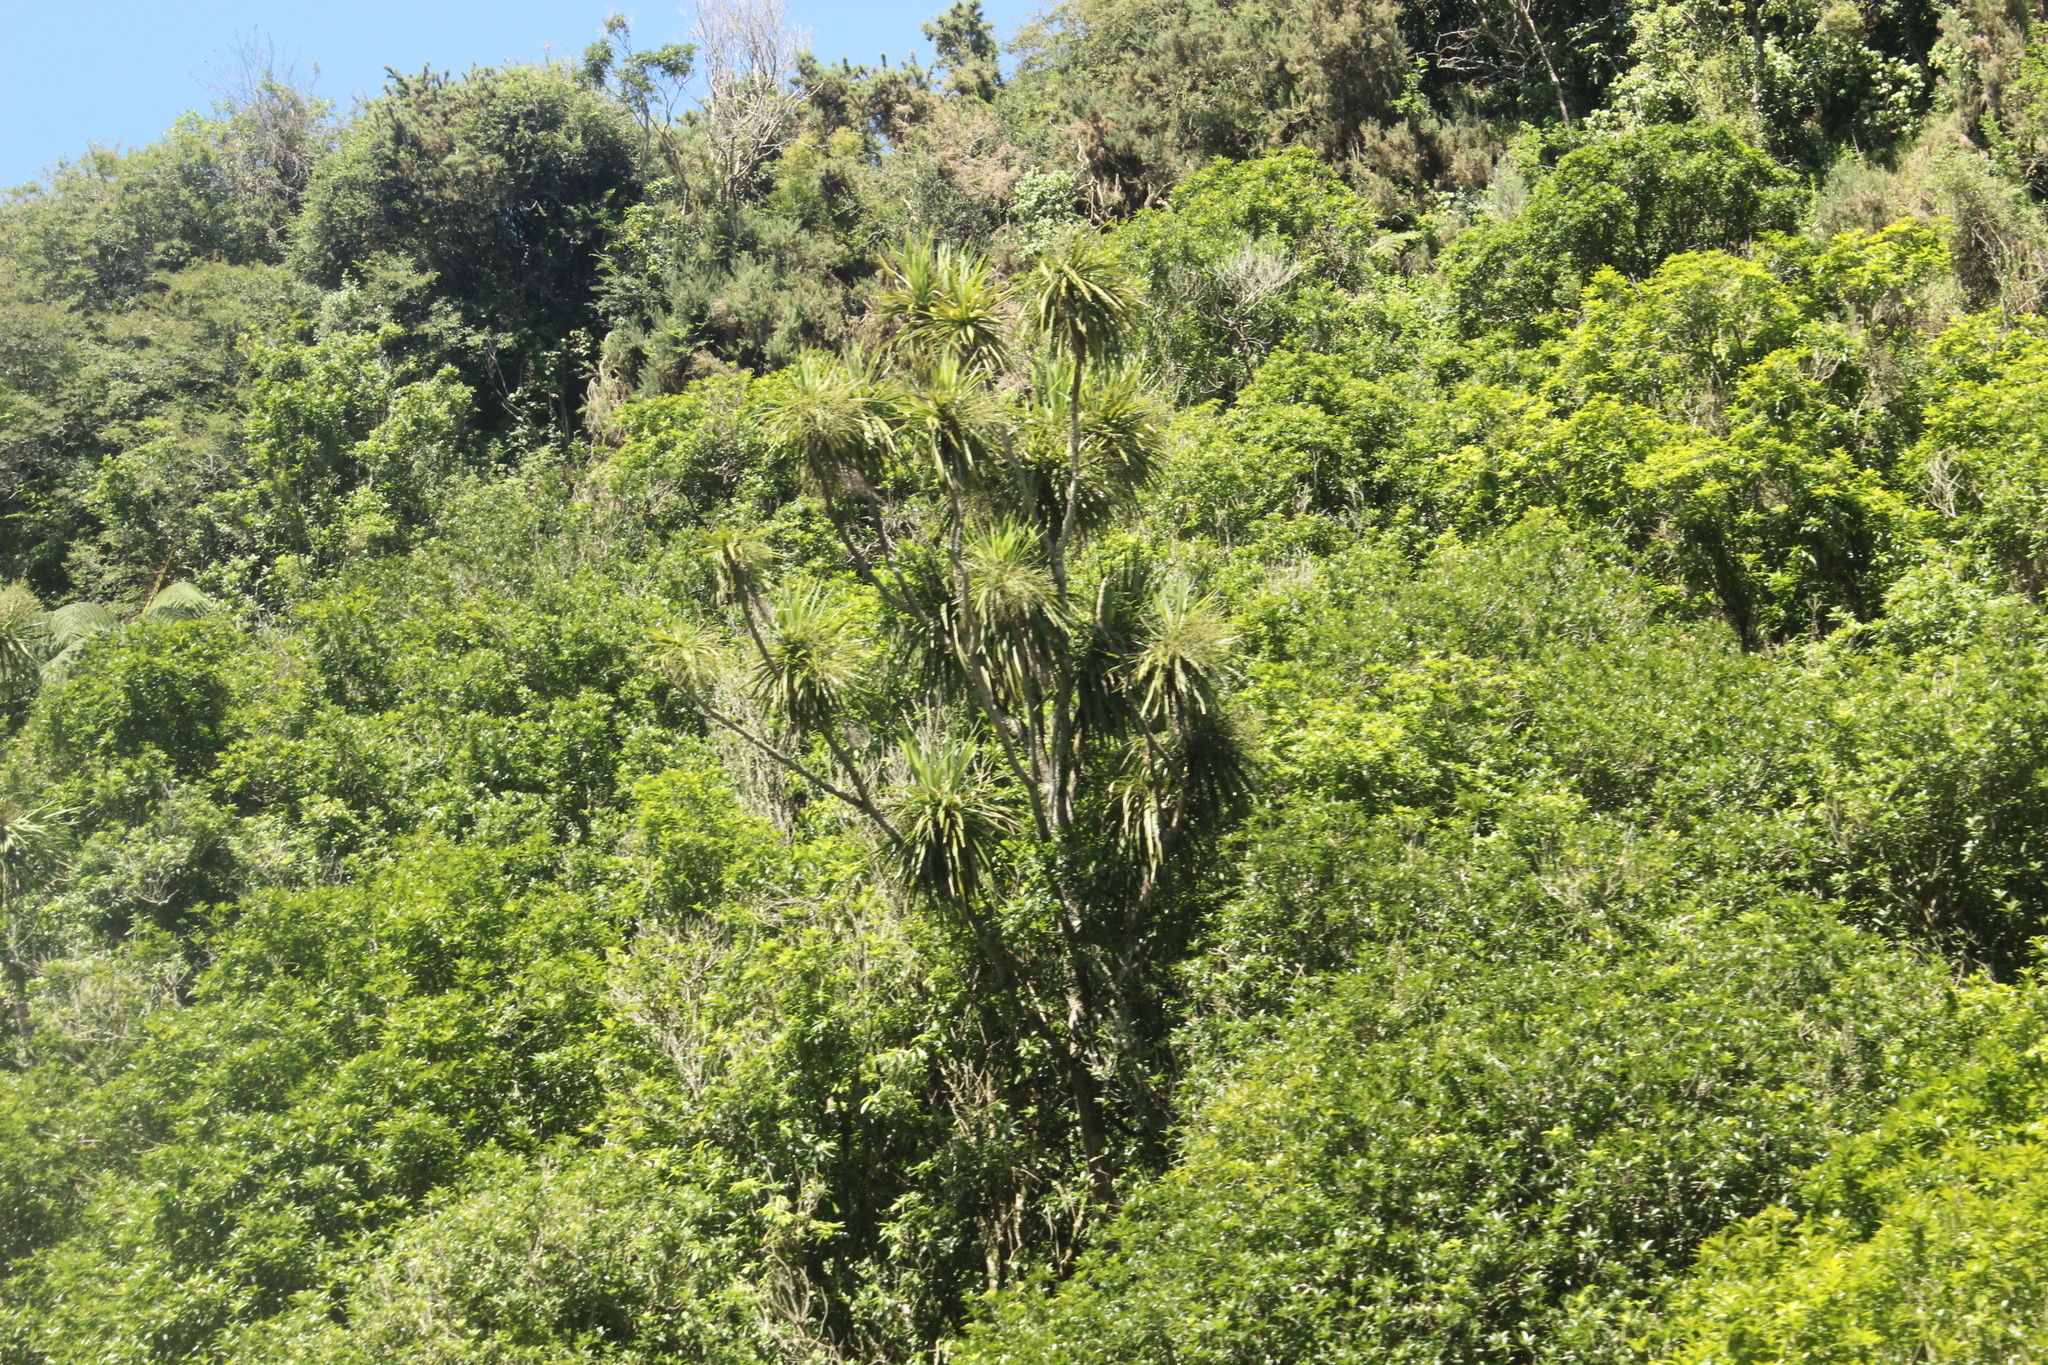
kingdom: Plantae
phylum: Tracheophyta
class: Liliopsida
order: Asparagales
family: Asparagaceae
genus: Cordyline
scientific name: Cordyline australis
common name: Cabbage-palm
